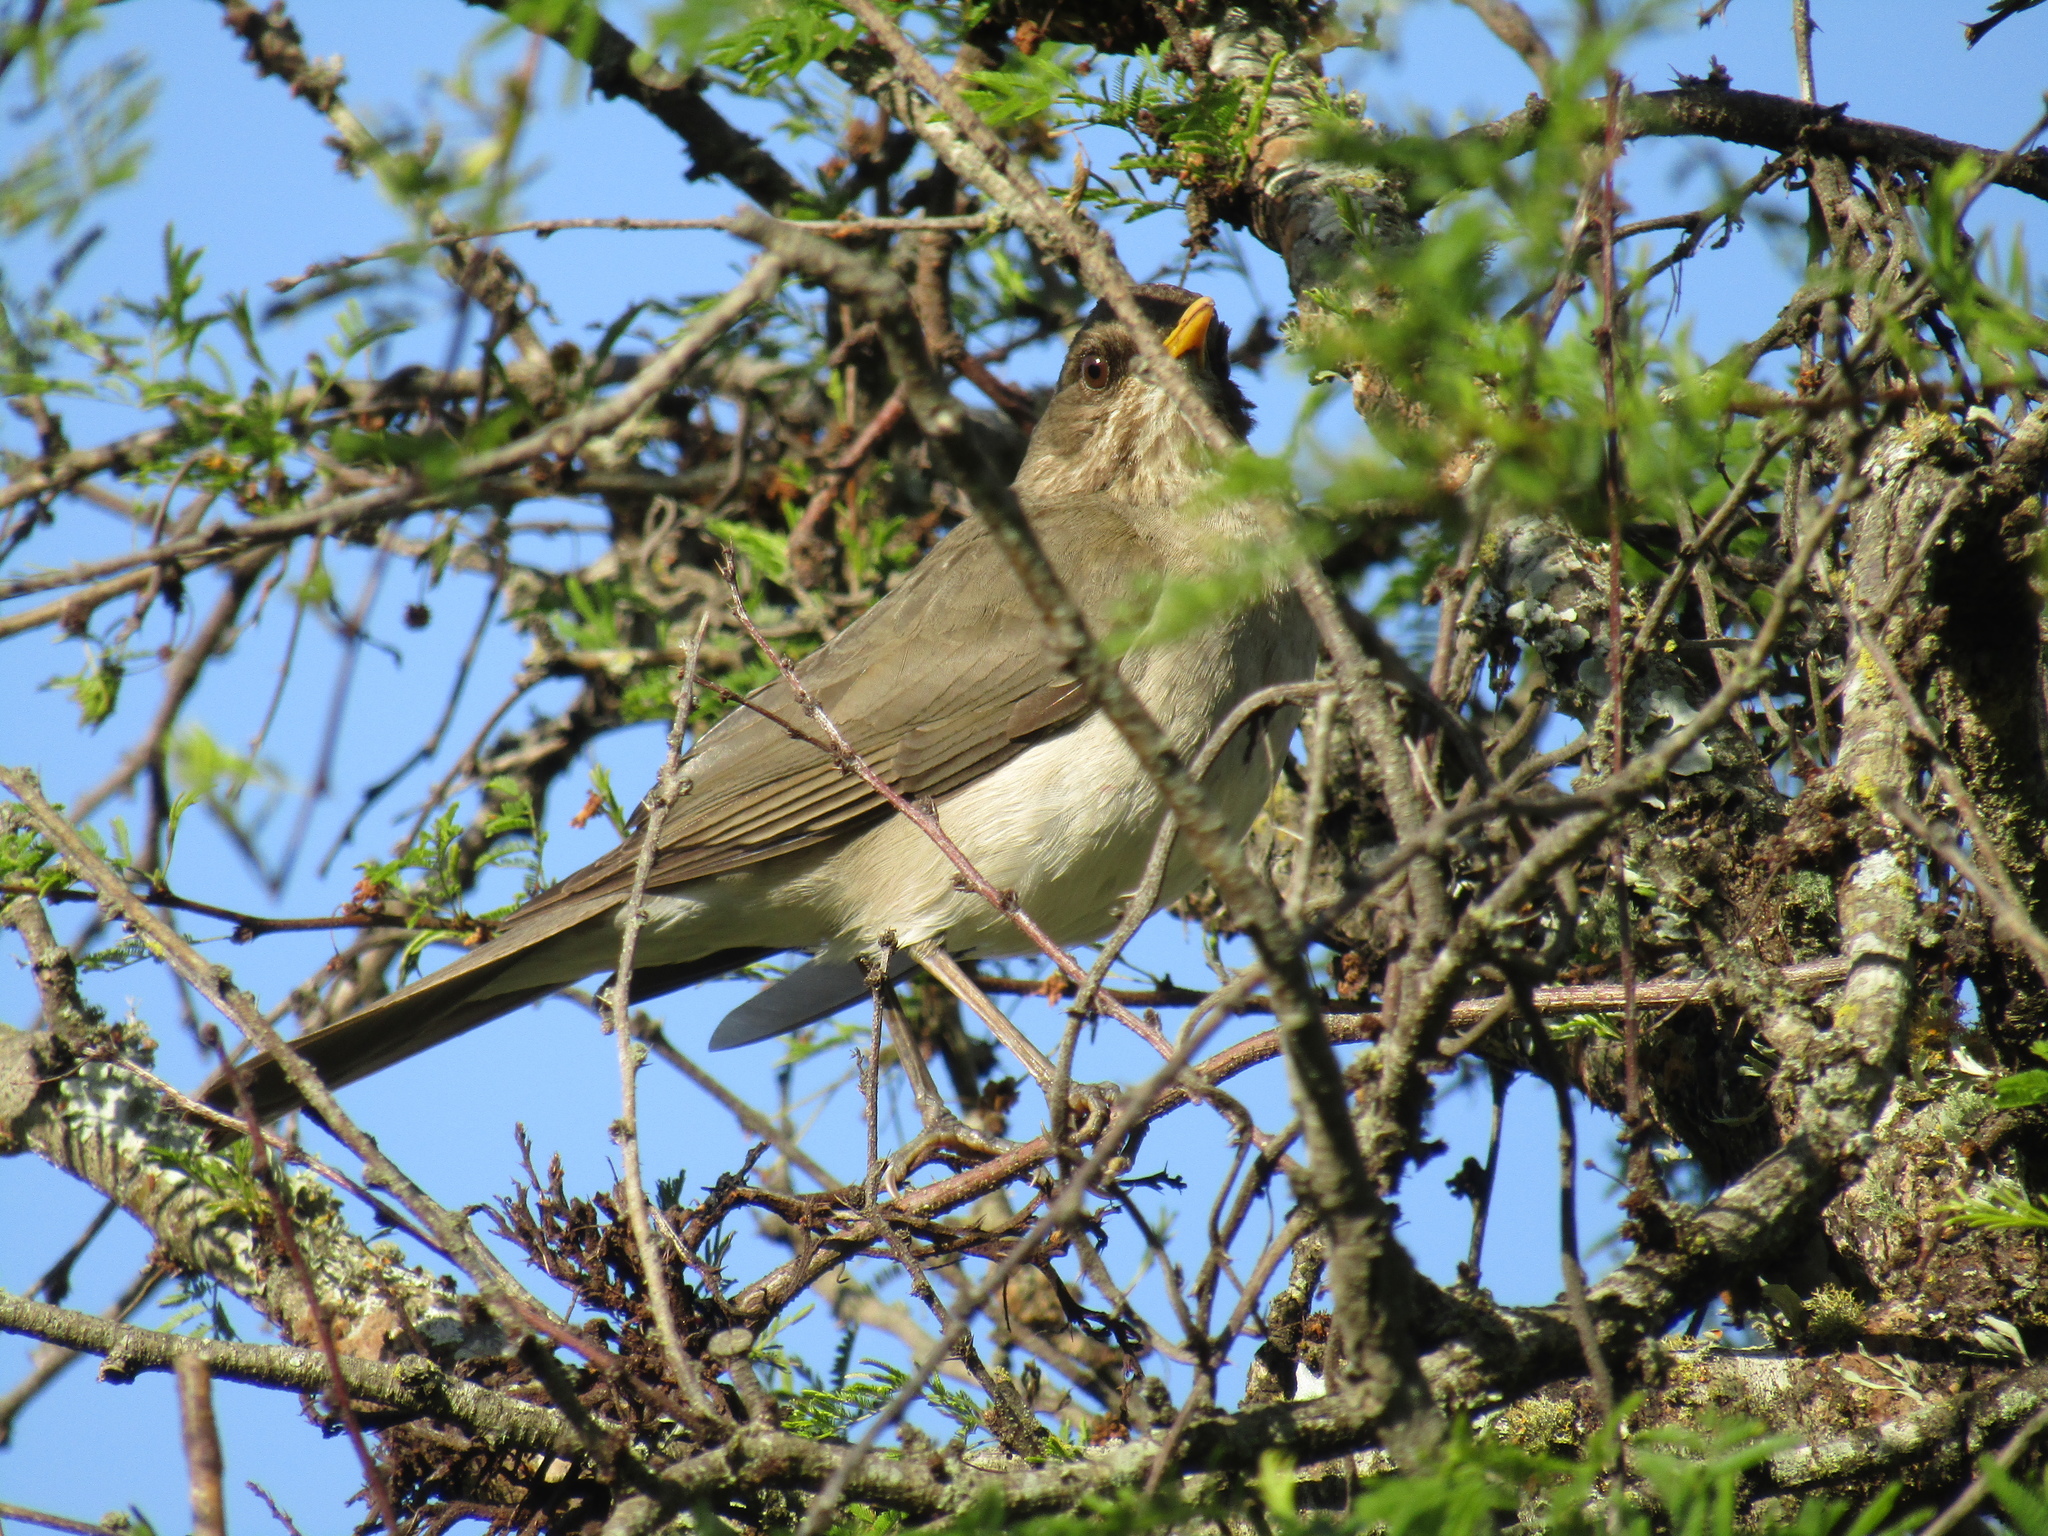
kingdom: Animalia
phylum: Chordata
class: Aves
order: Passeriformes
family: Turdidae
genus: Turdus
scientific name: Turdus amaurochalinus
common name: Creamy-bellied thrush
